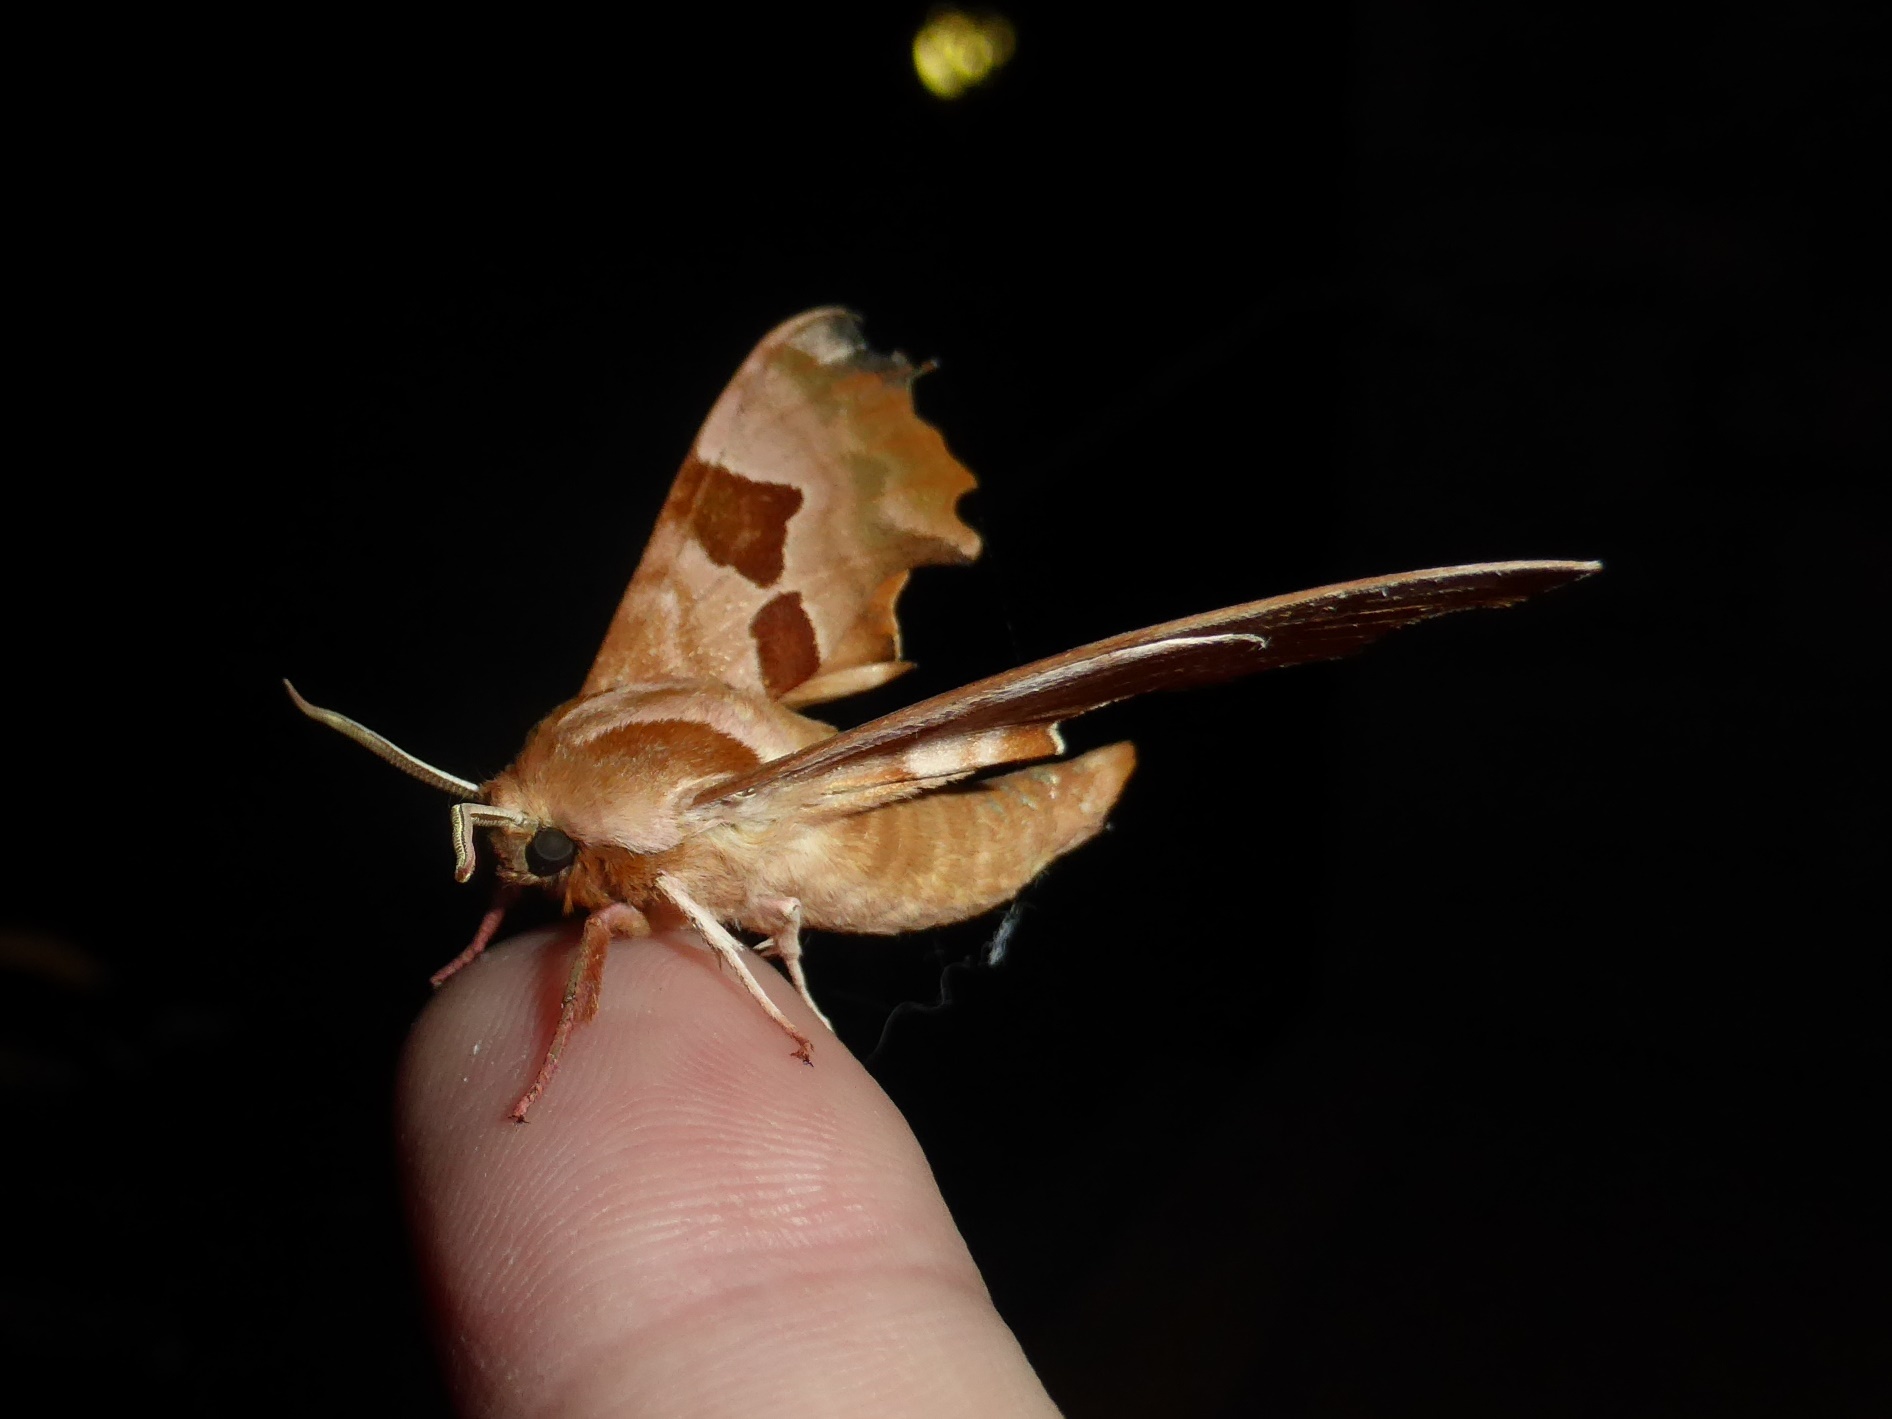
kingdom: Animalia
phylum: Arthropoda
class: Insecta
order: Lepidoptera
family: Sphingidae
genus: Mimas
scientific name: Mimas tiliae
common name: Lime hawk-moth
